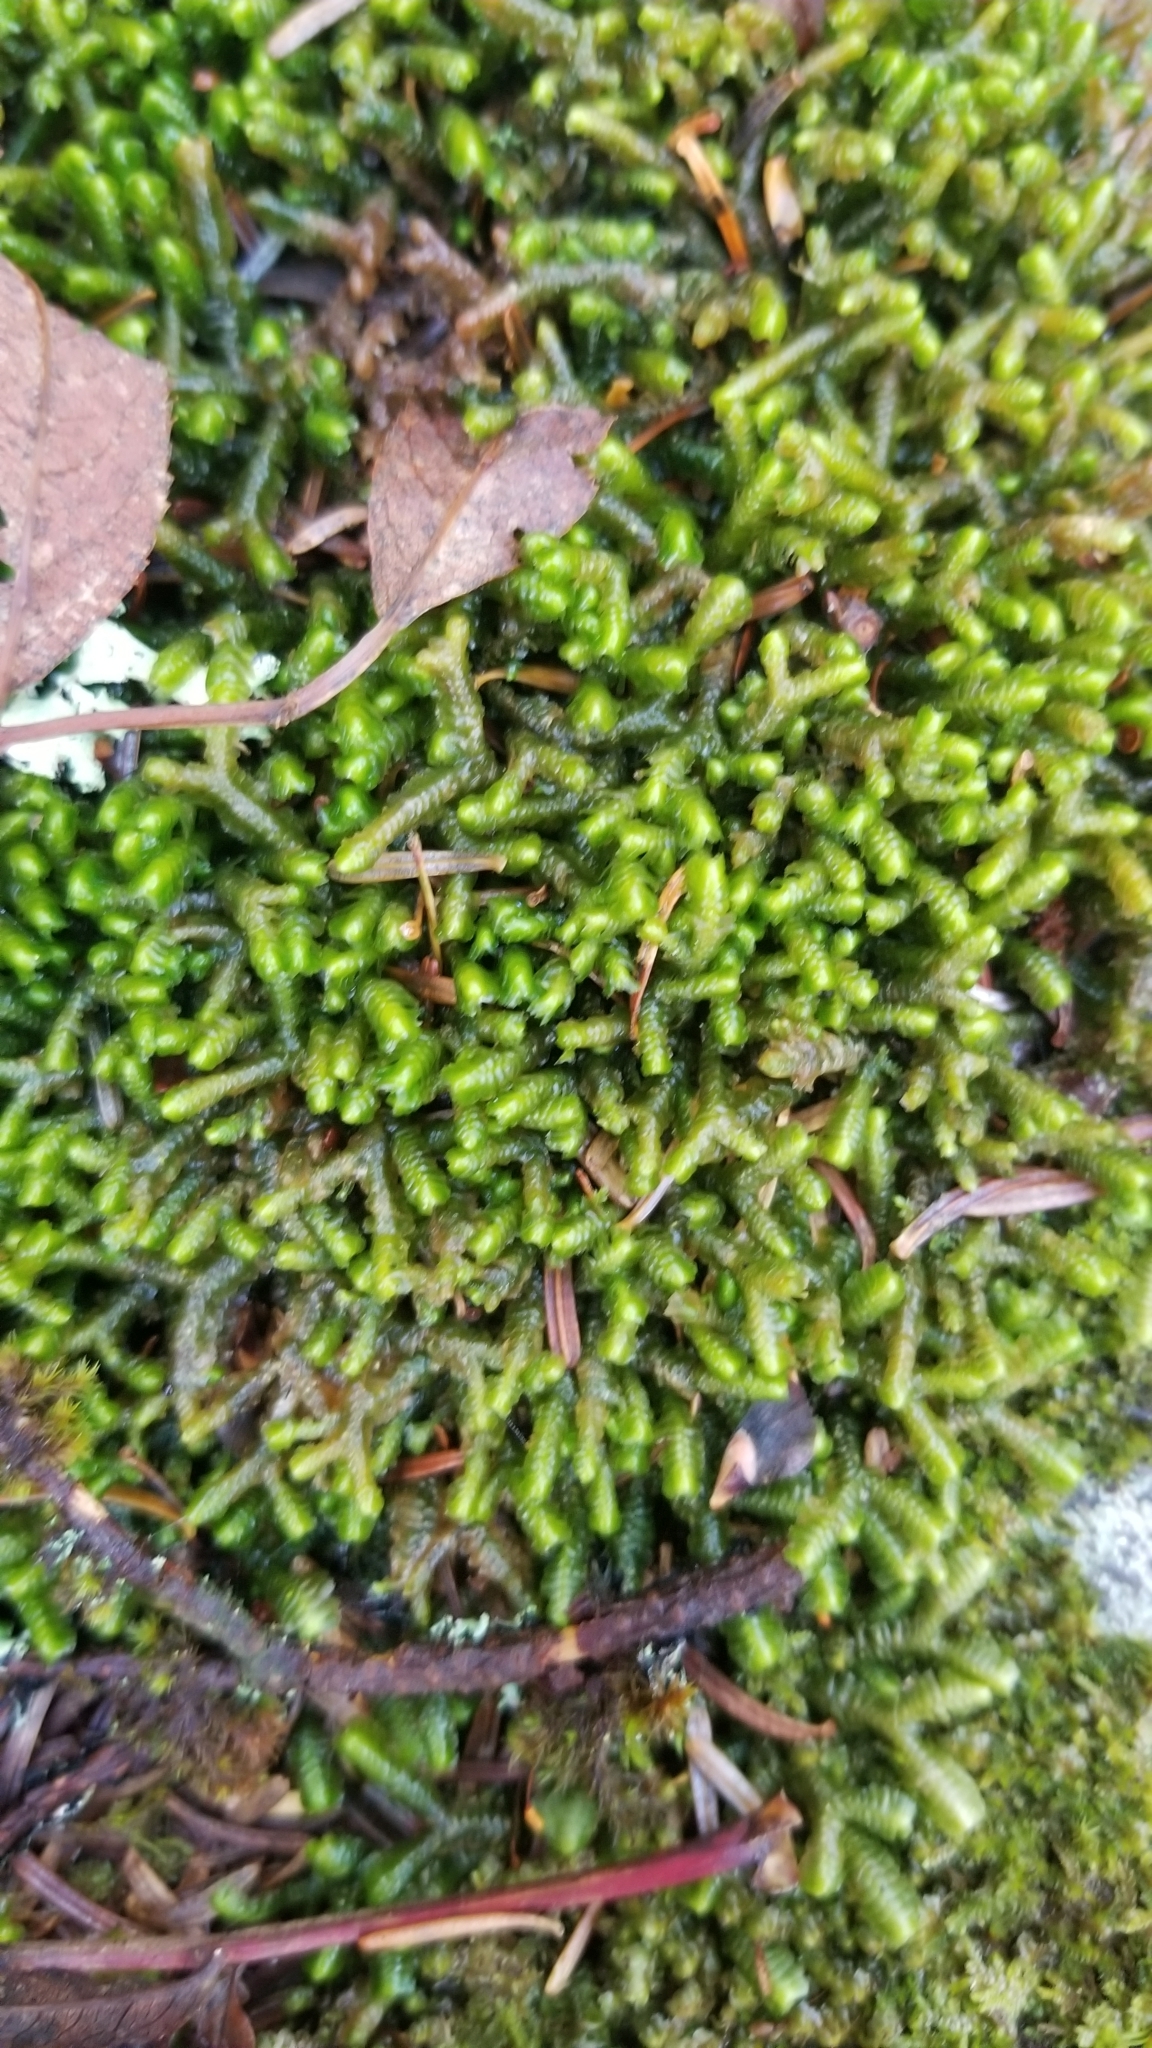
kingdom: Plantae
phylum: Marchantiophyta
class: Jungermanniopsida
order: Jungermanniales
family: Lepidoziaceae
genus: Bazzania
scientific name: Bazzania trilobata
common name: Three-lobed whipwort
